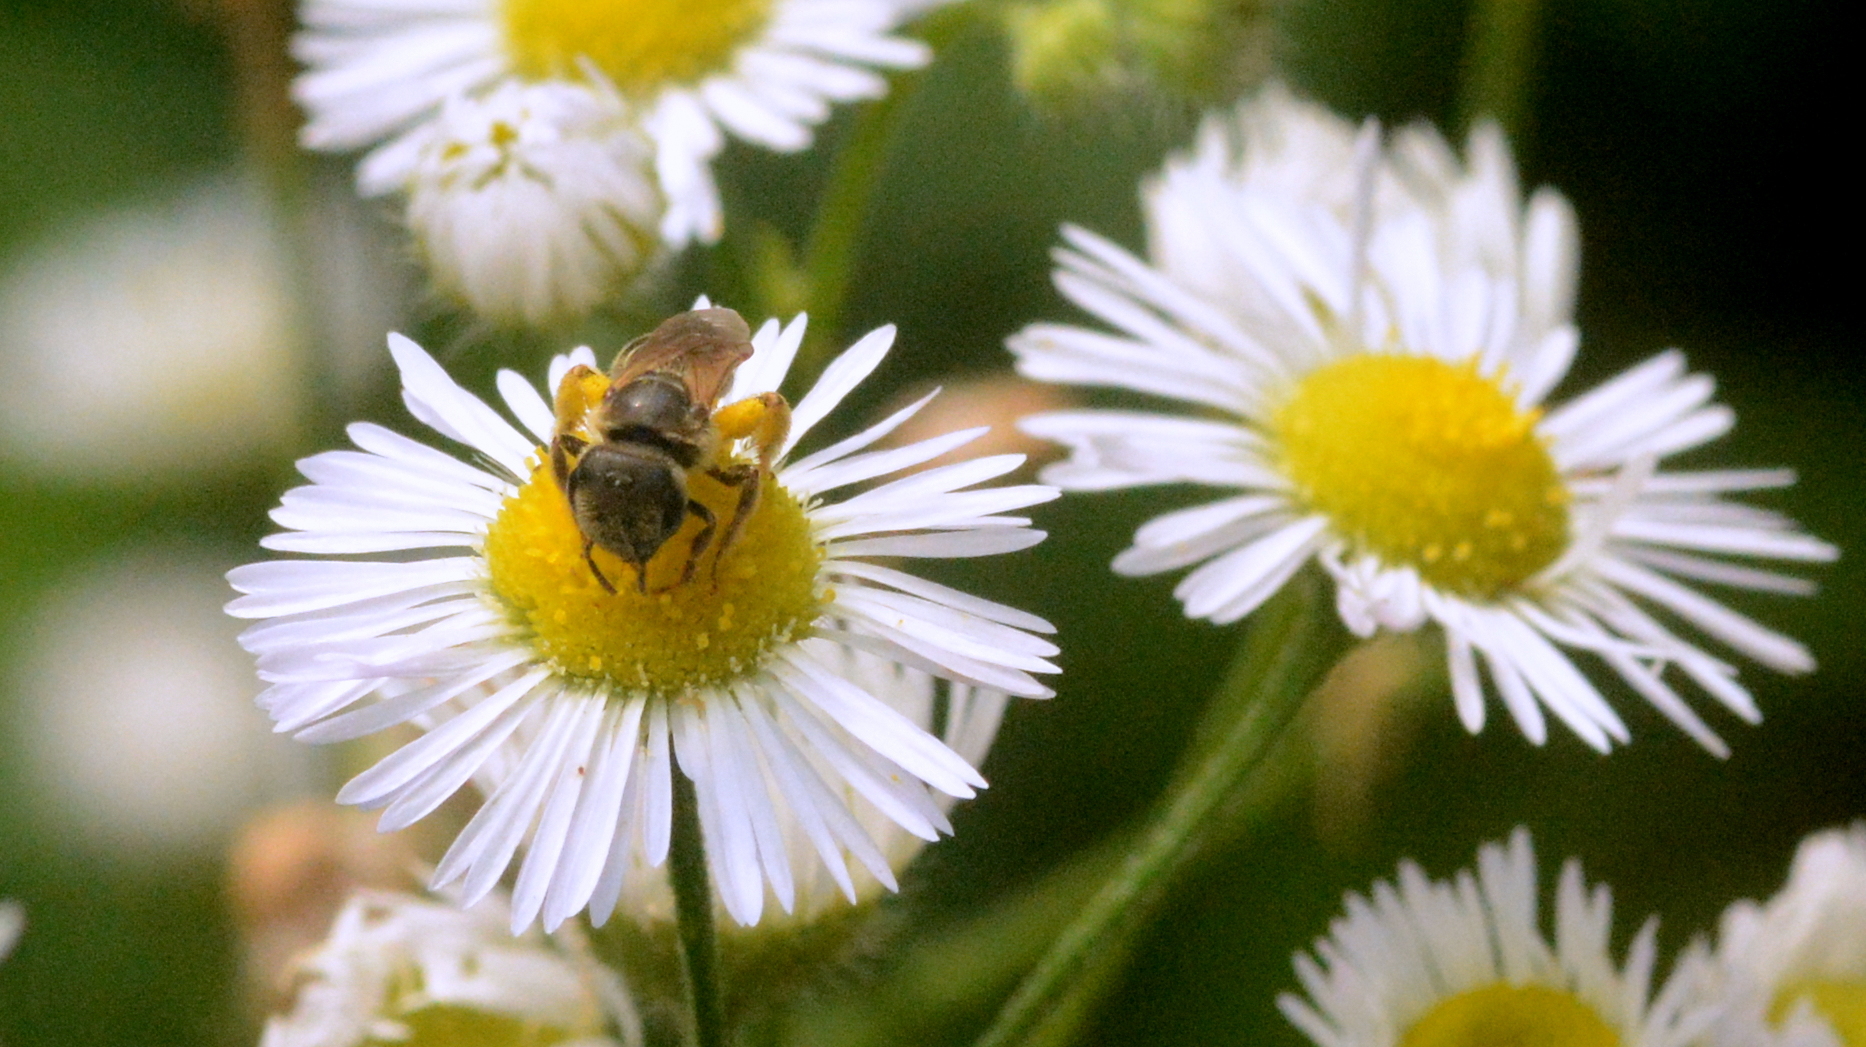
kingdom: Animalia
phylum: Arthropoda
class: Insecta
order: Hymenoptera
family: Halictidae
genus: Halictus
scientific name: Halictus ligatus
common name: Ligated furrow bee
